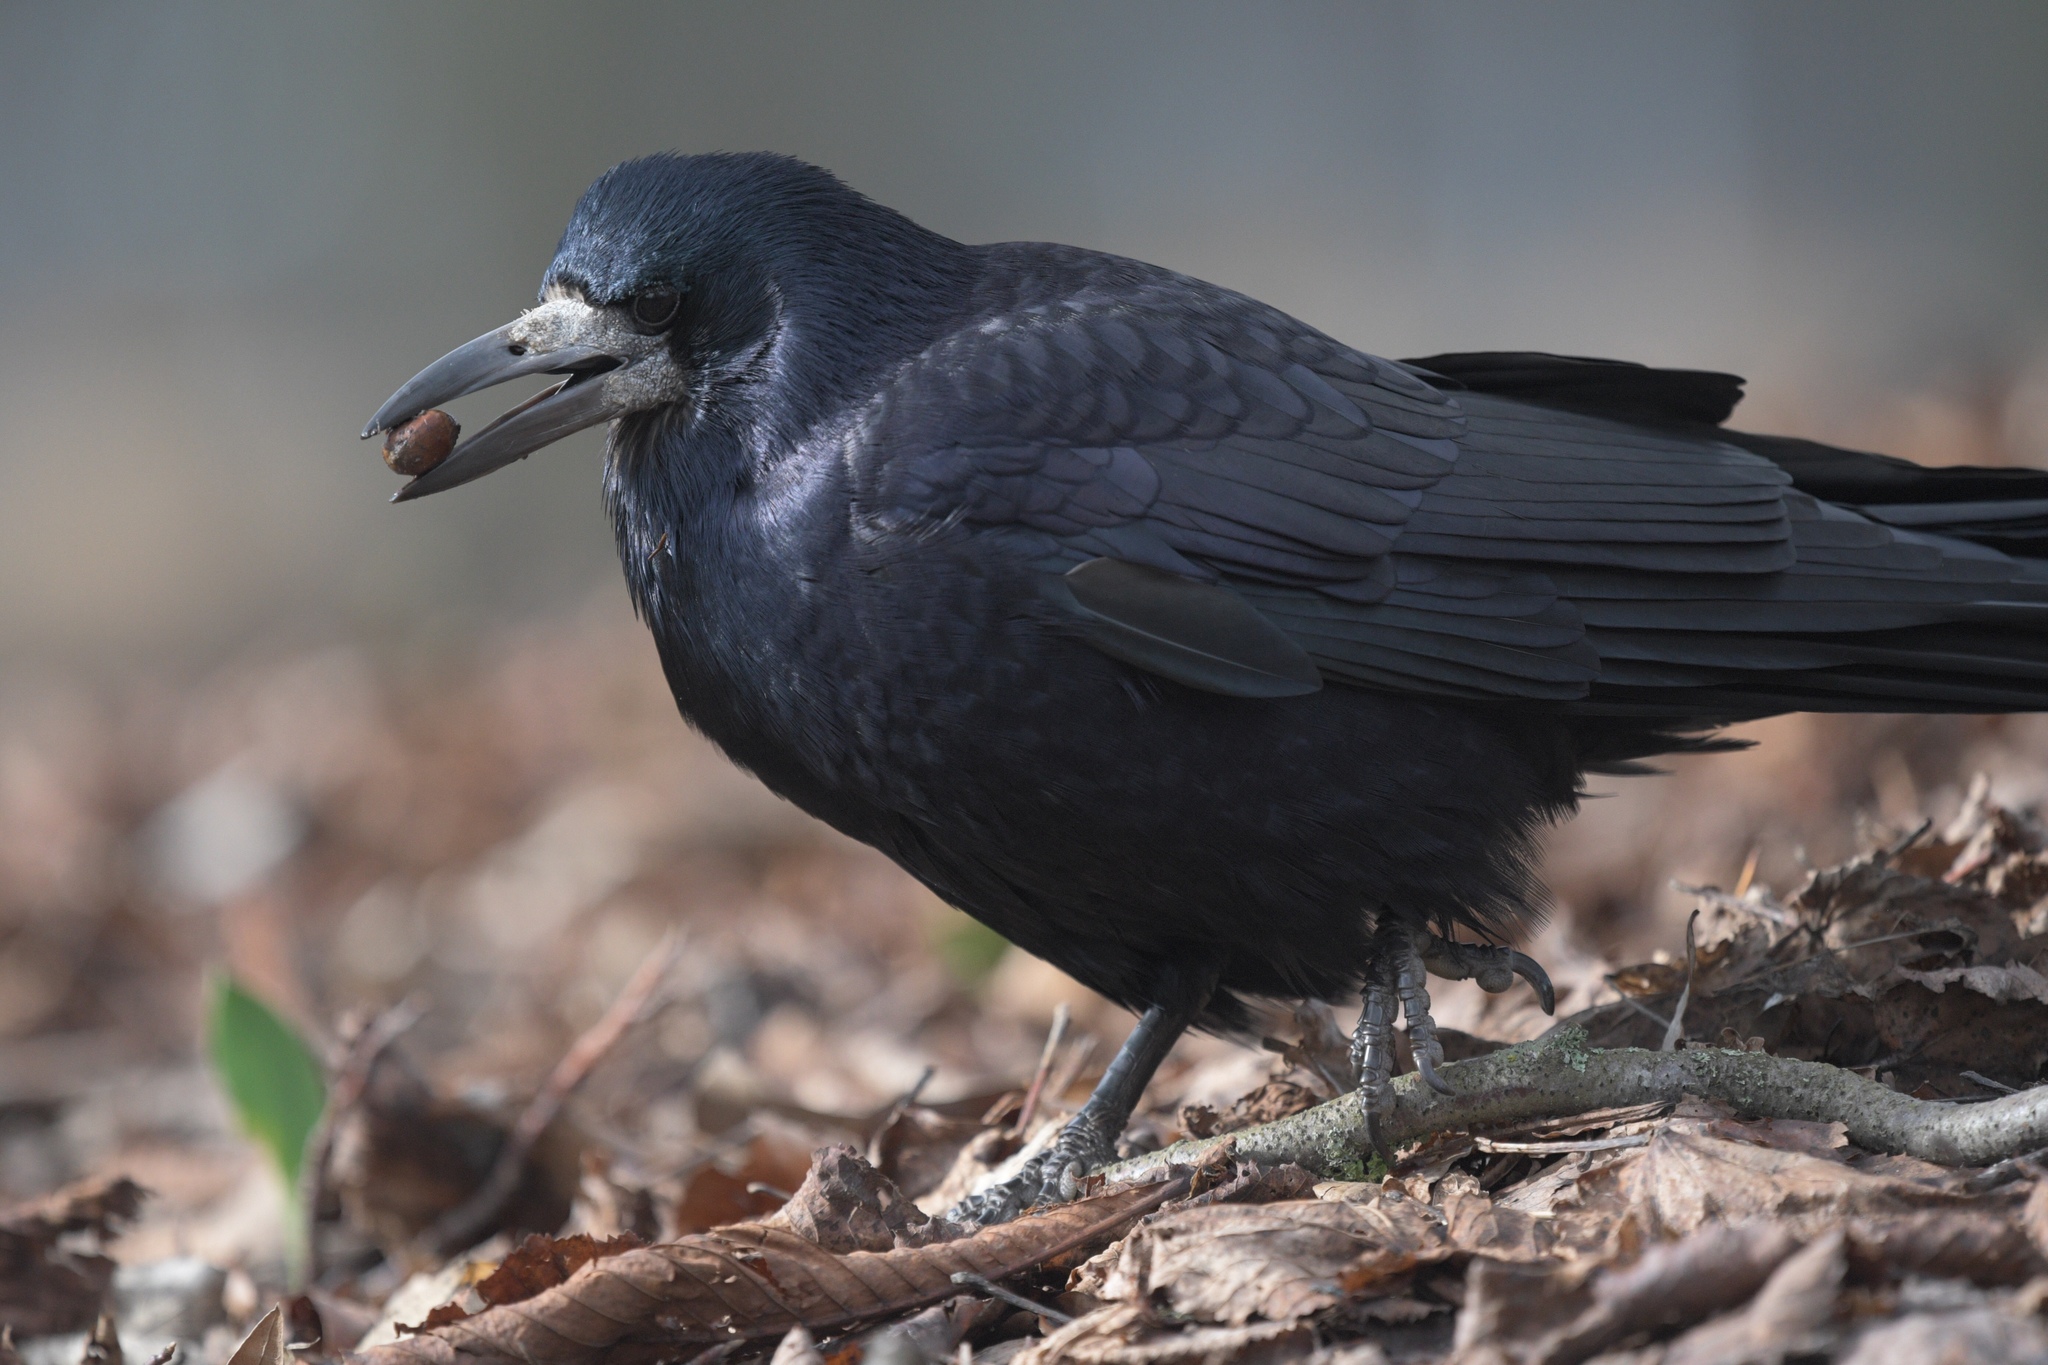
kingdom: Animalia
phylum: Chordata
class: Aves
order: Passeriformes
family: Corvidae
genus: Corvus
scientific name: Corvus frugilegus
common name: Rook
